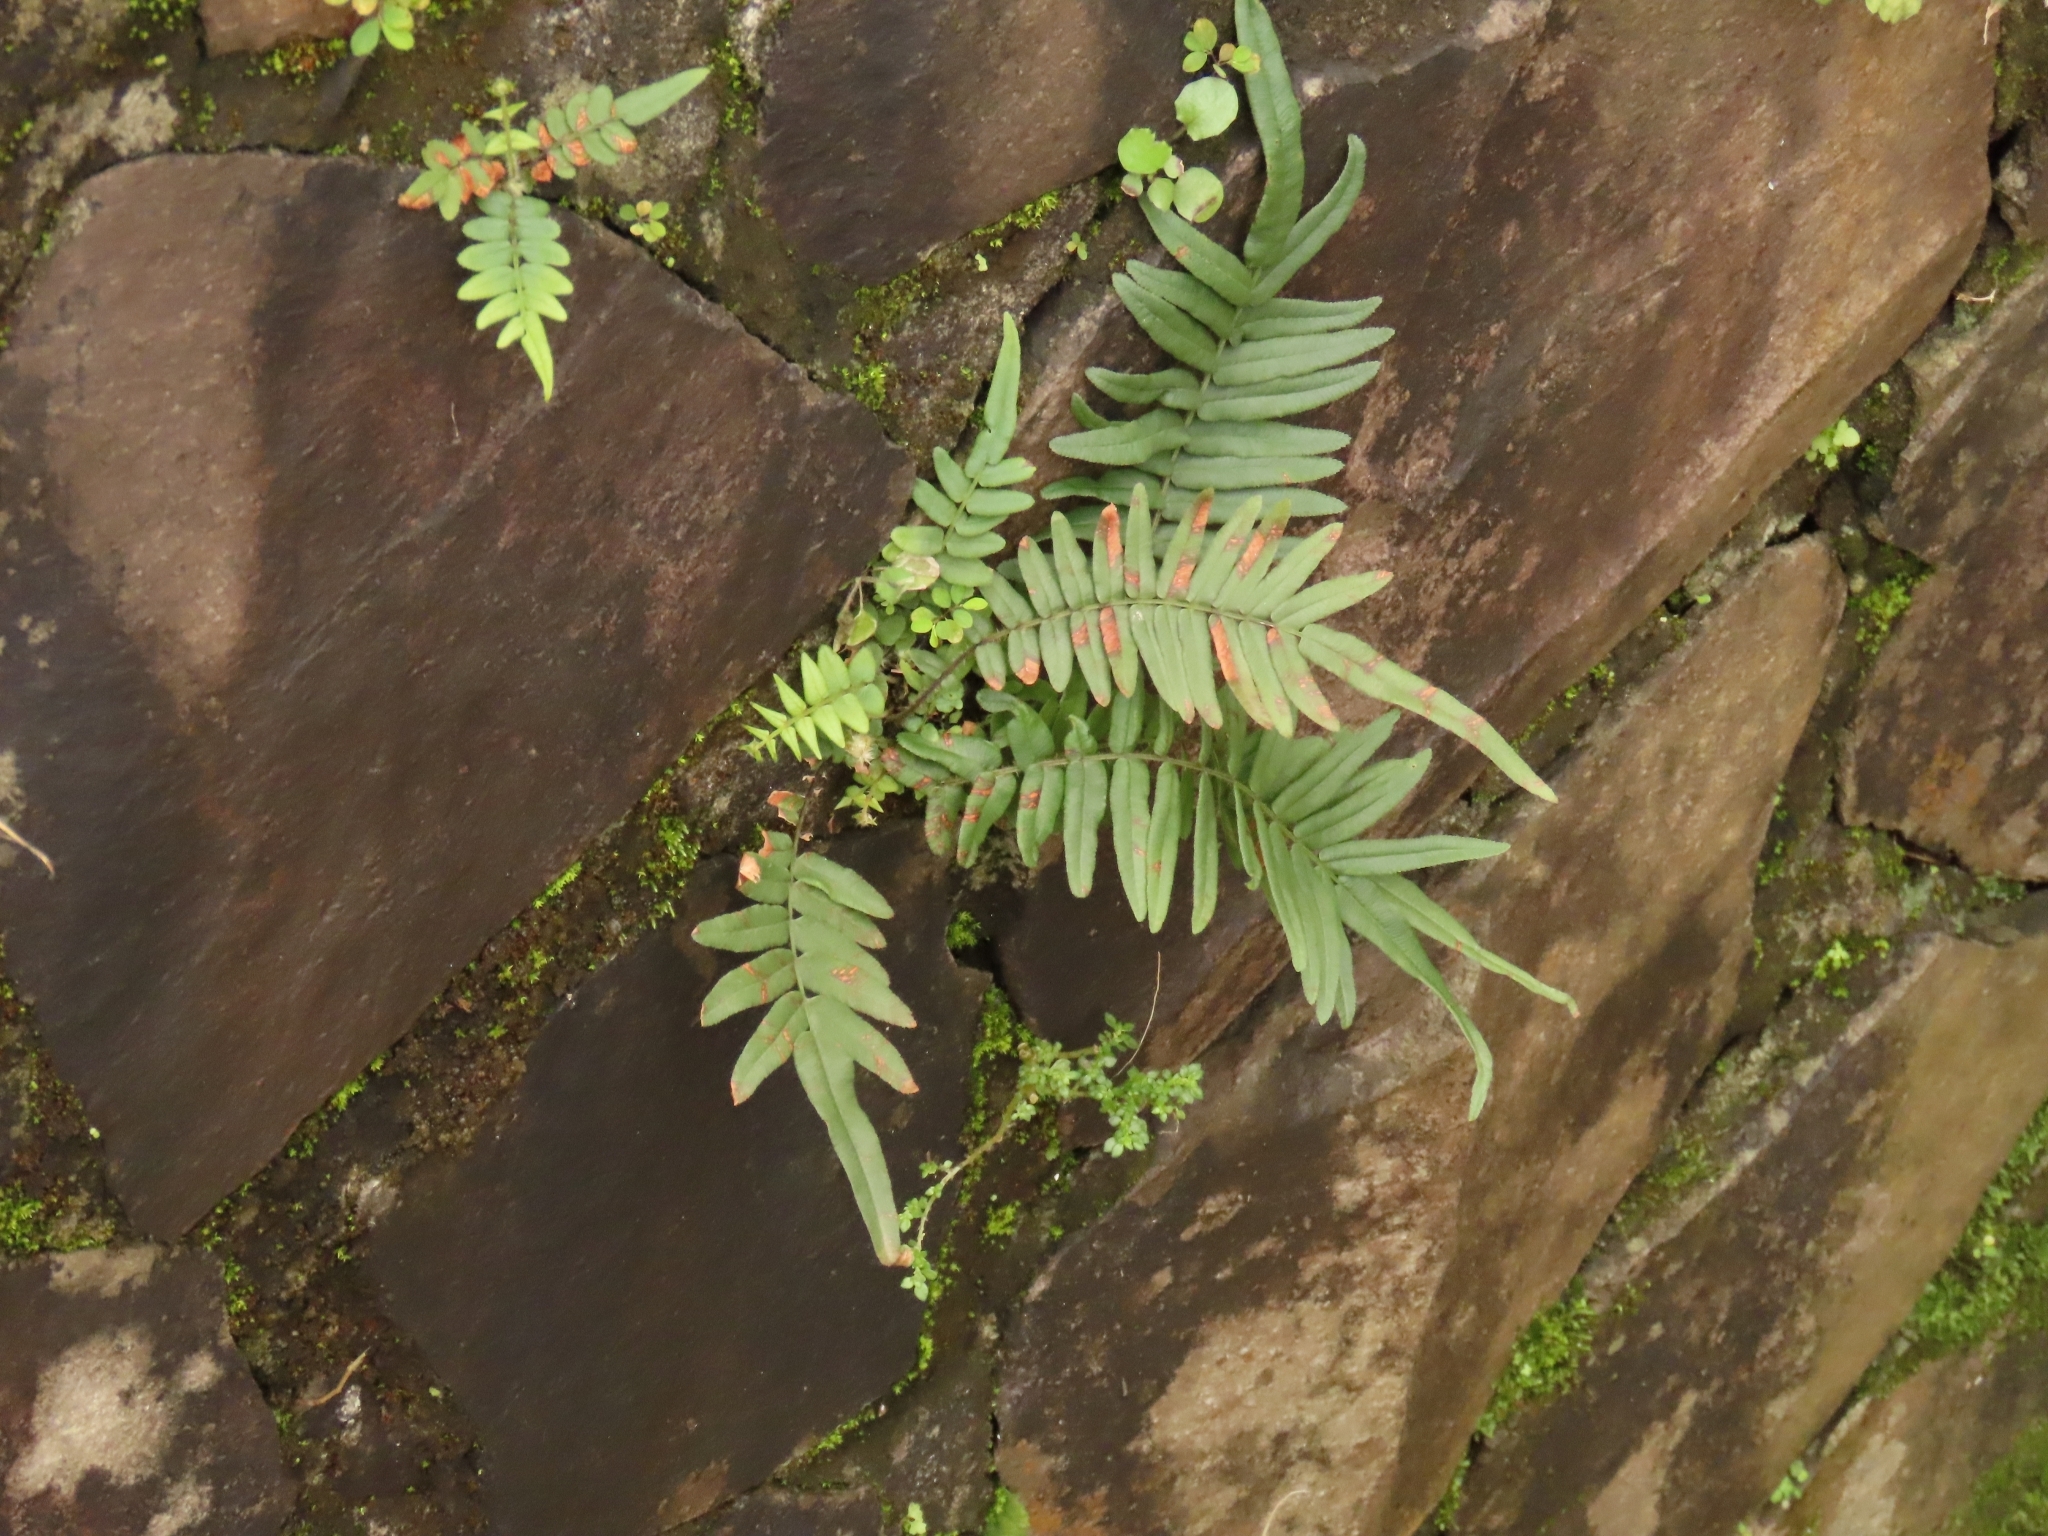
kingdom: Plantae
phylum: Tracheophyta
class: Polypodiopsida
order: Polypodiales
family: Pteridaceae
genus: Pteris
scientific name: Pteris vittata
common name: Ladder brake
